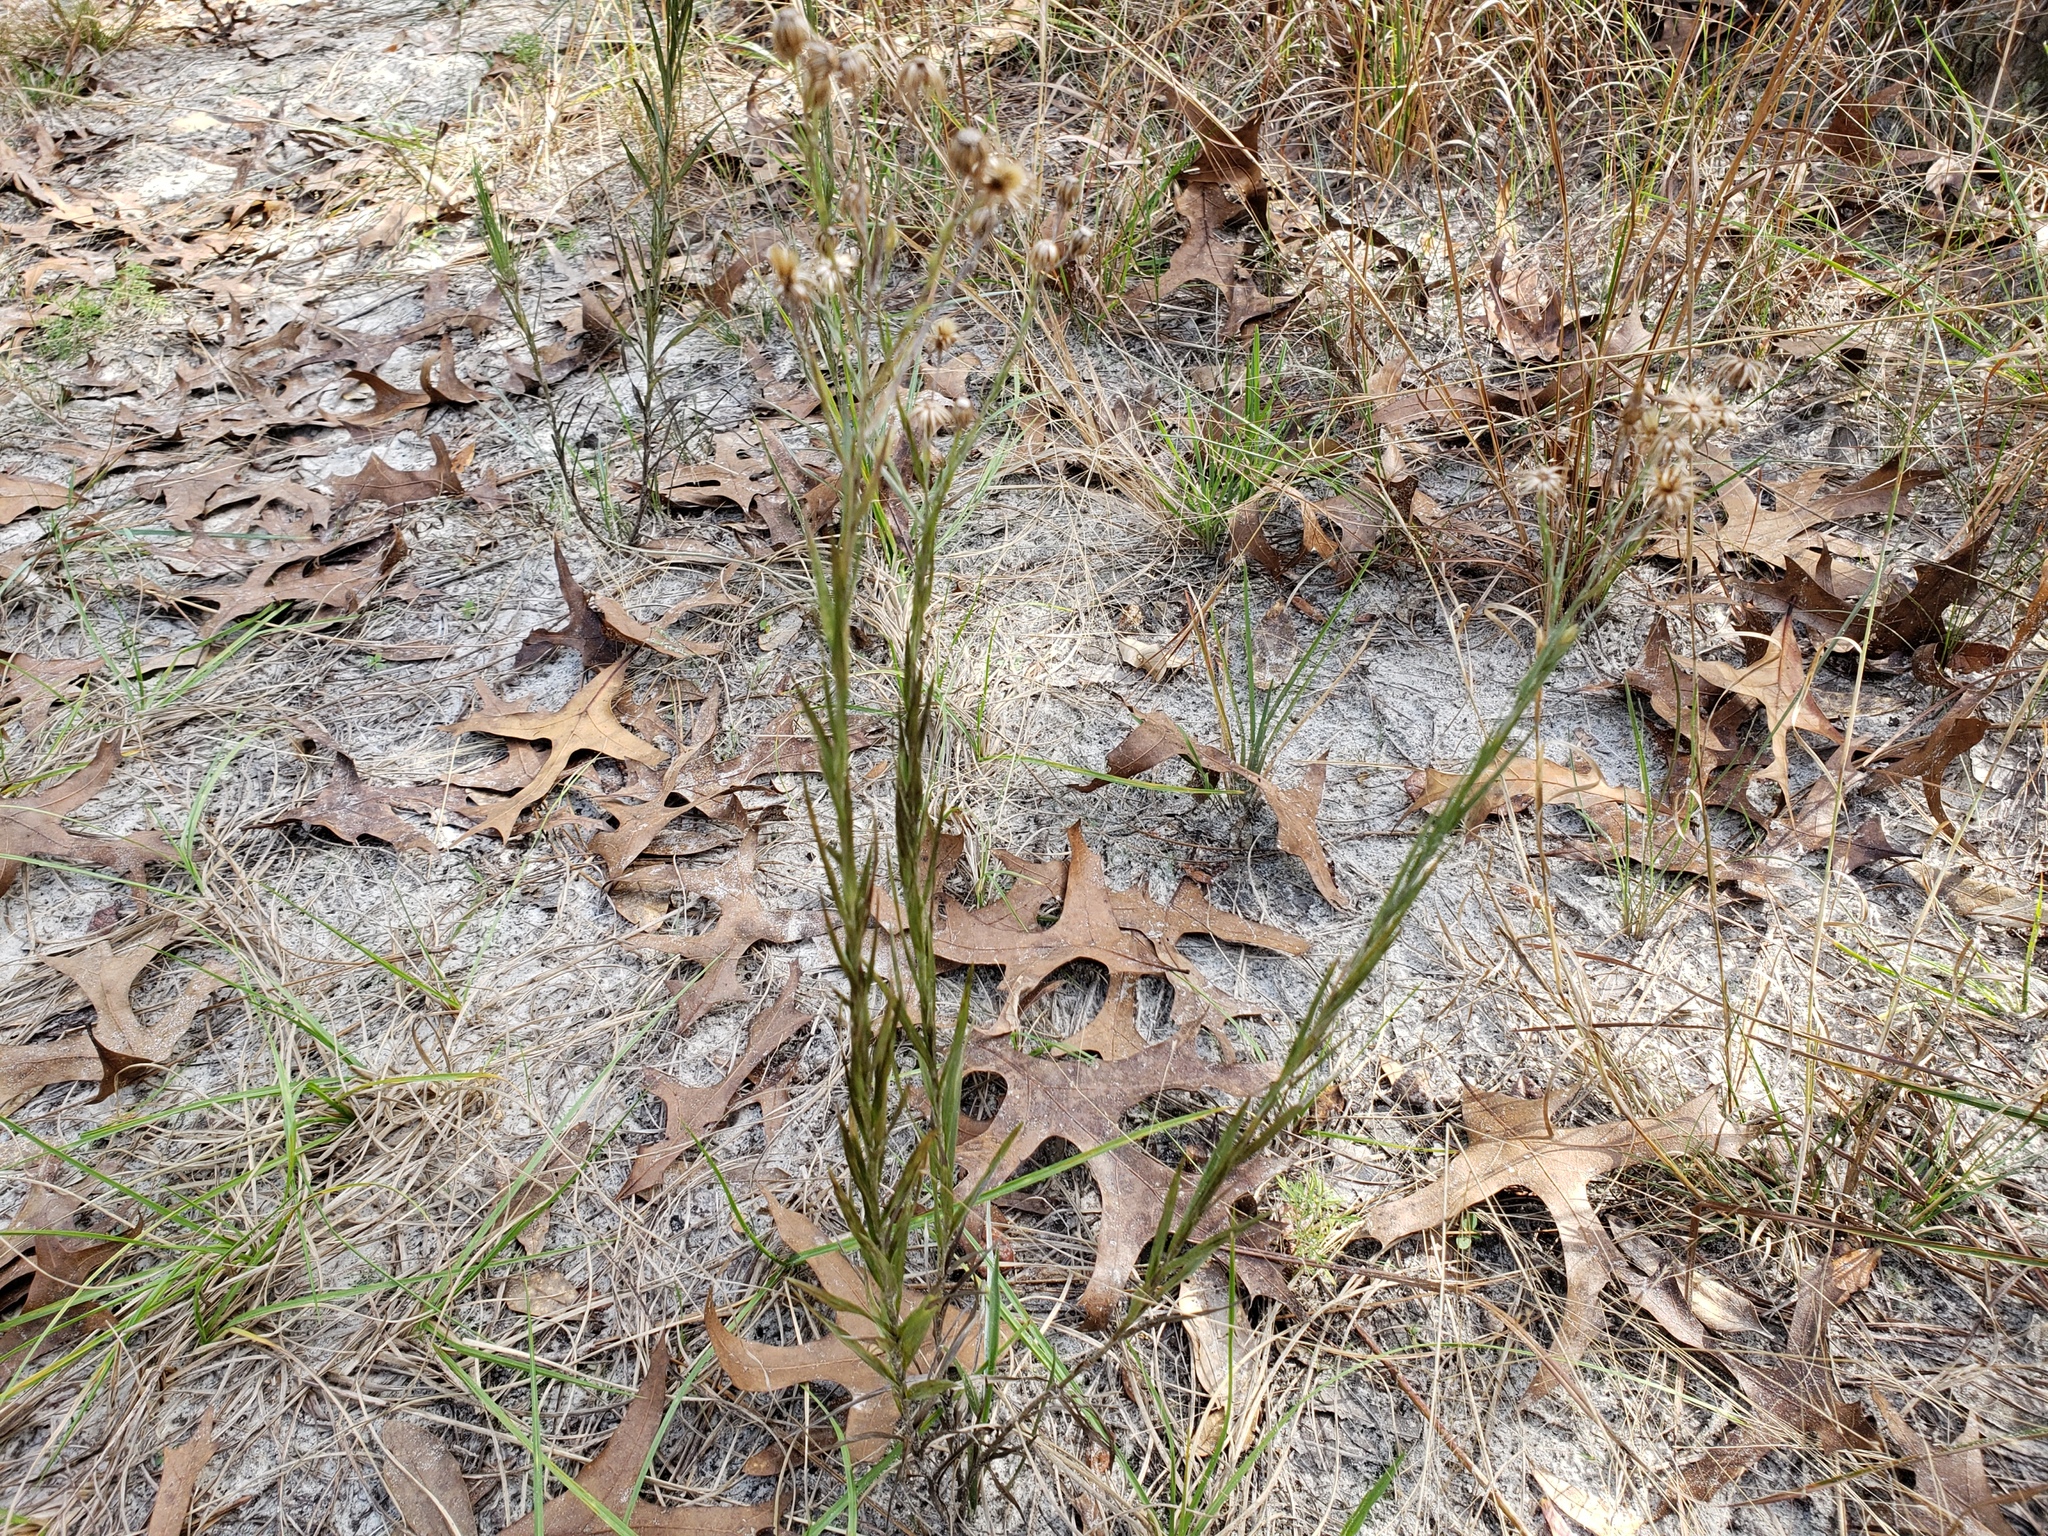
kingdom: Plantae
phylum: Tracheophyta
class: Magnoliopsida
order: Asterales
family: Asteraceae
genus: Pityopsis
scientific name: Pityopsis tracyi
